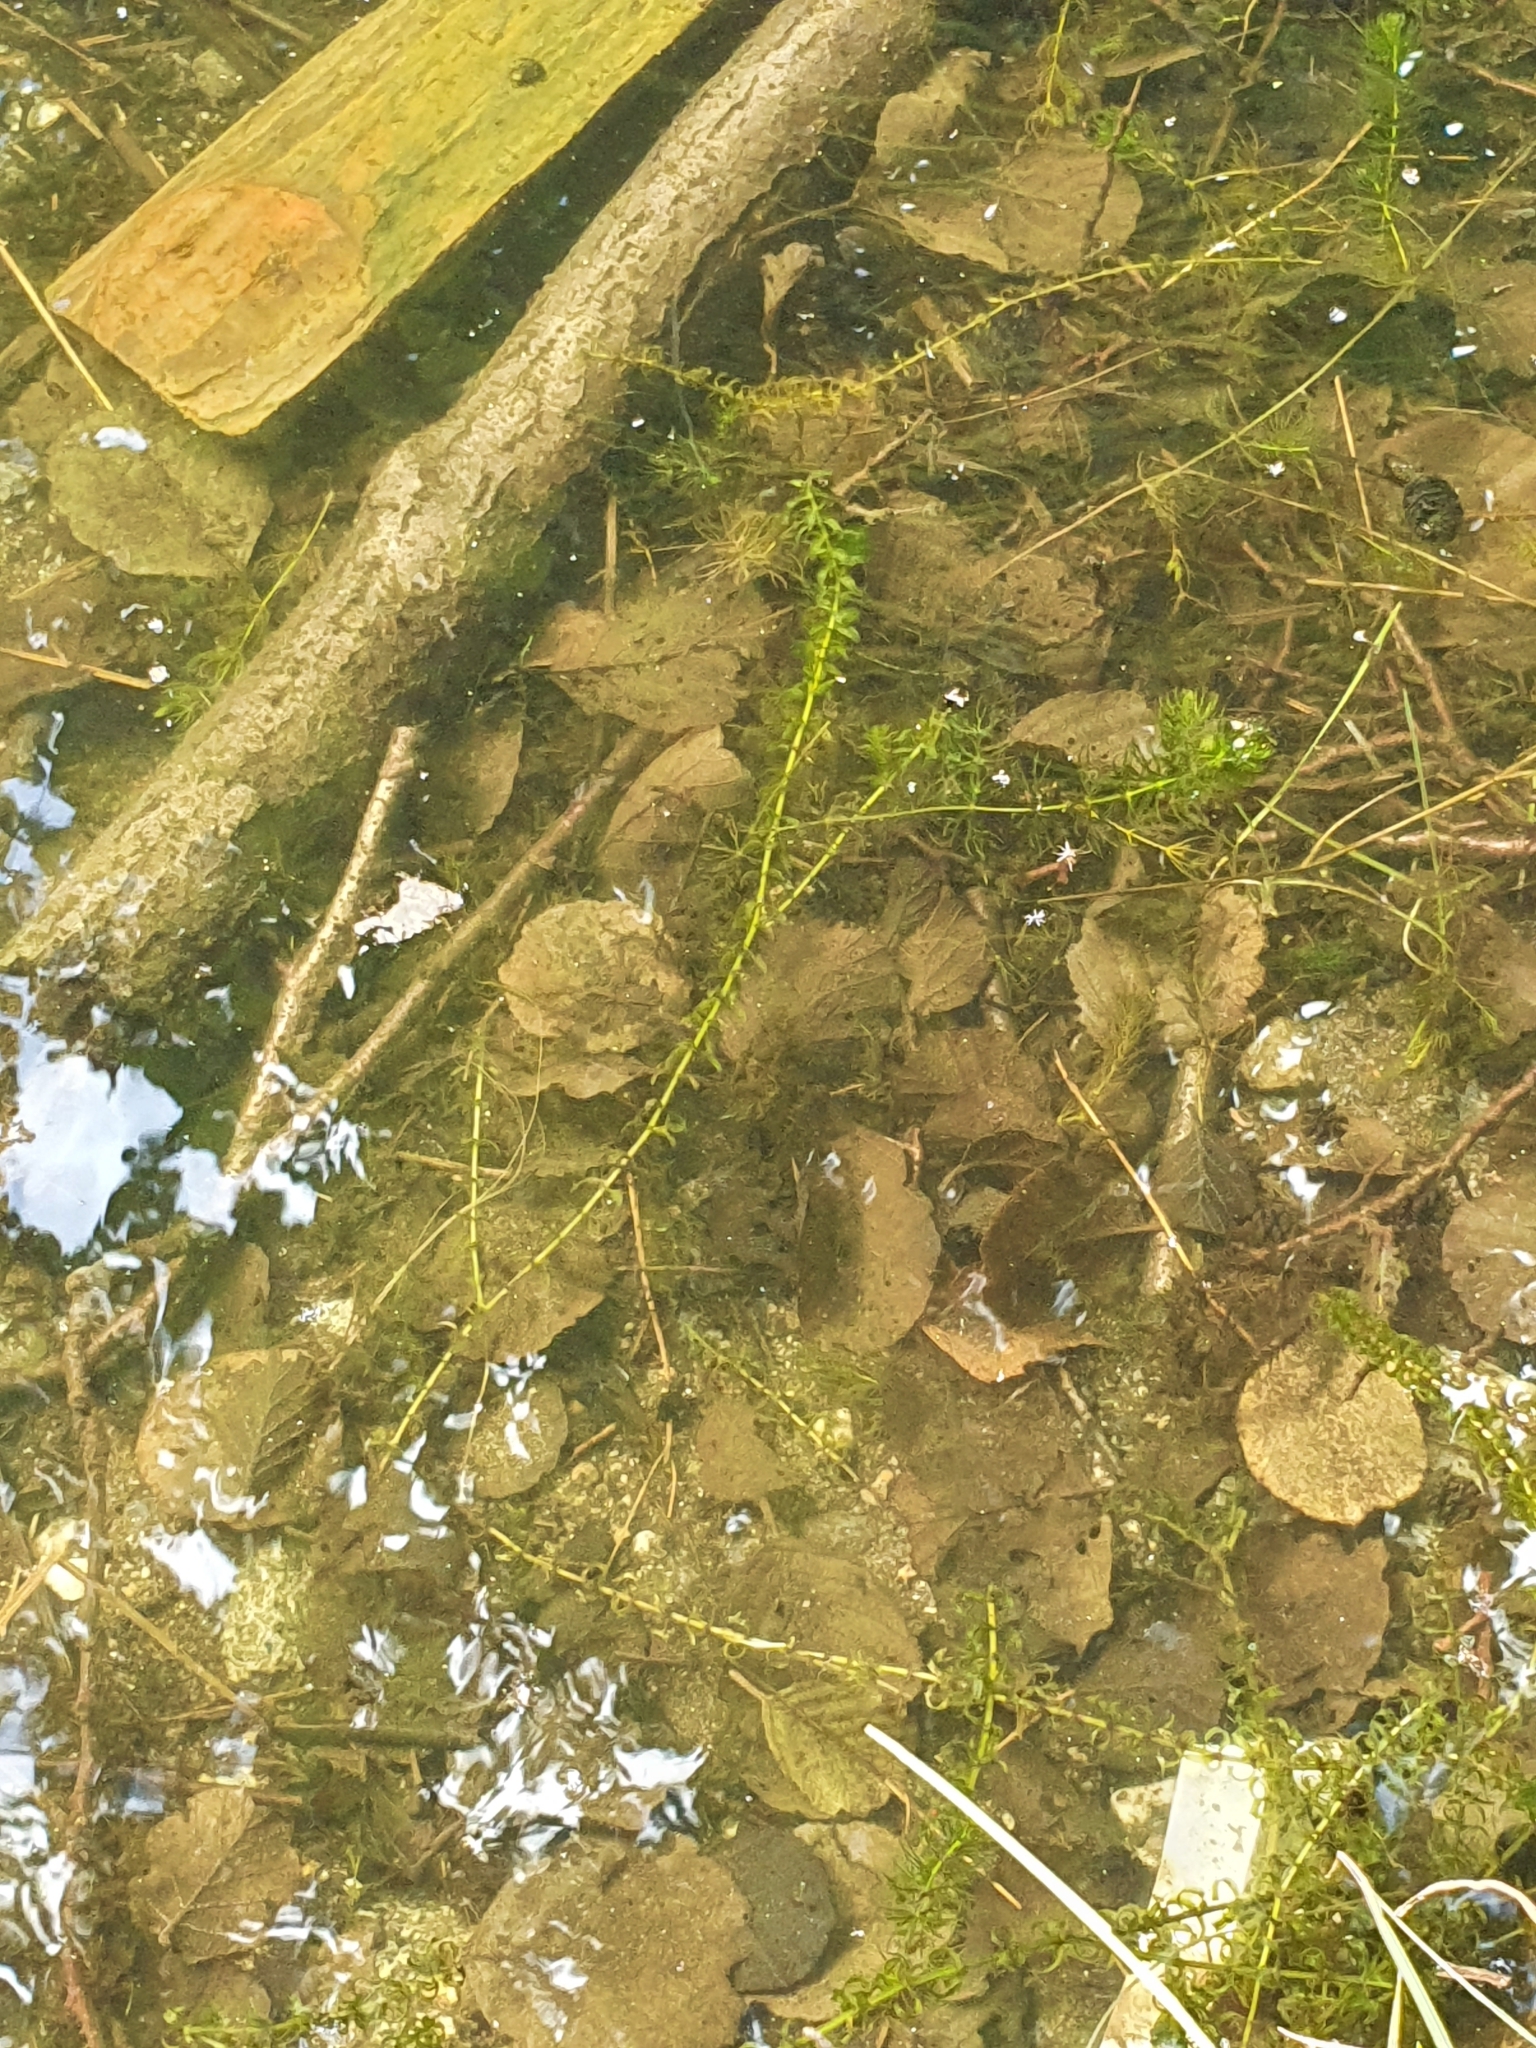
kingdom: Plantae
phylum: Tracheophyta
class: Magnoliopsida
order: Ceratophyllales
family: Ceratophyllaceae
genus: Ceratophyllum
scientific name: Ceratophyllum demersum
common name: Rigid hornwort
